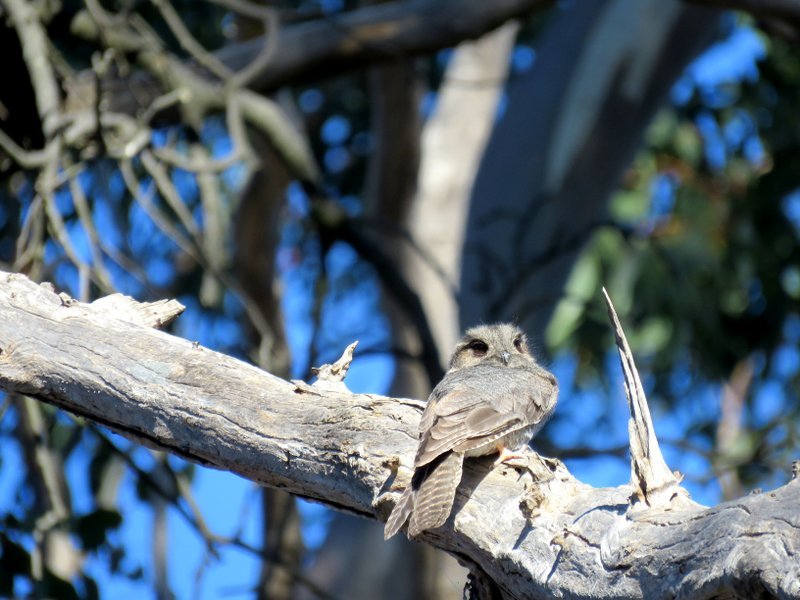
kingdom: Animalia
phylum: Chordata
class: Aves
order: Apodiformes
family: Aegothelidae
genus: Aegotheles
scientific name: Aegotheles cristatus
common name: Australian owlet-nightjar
